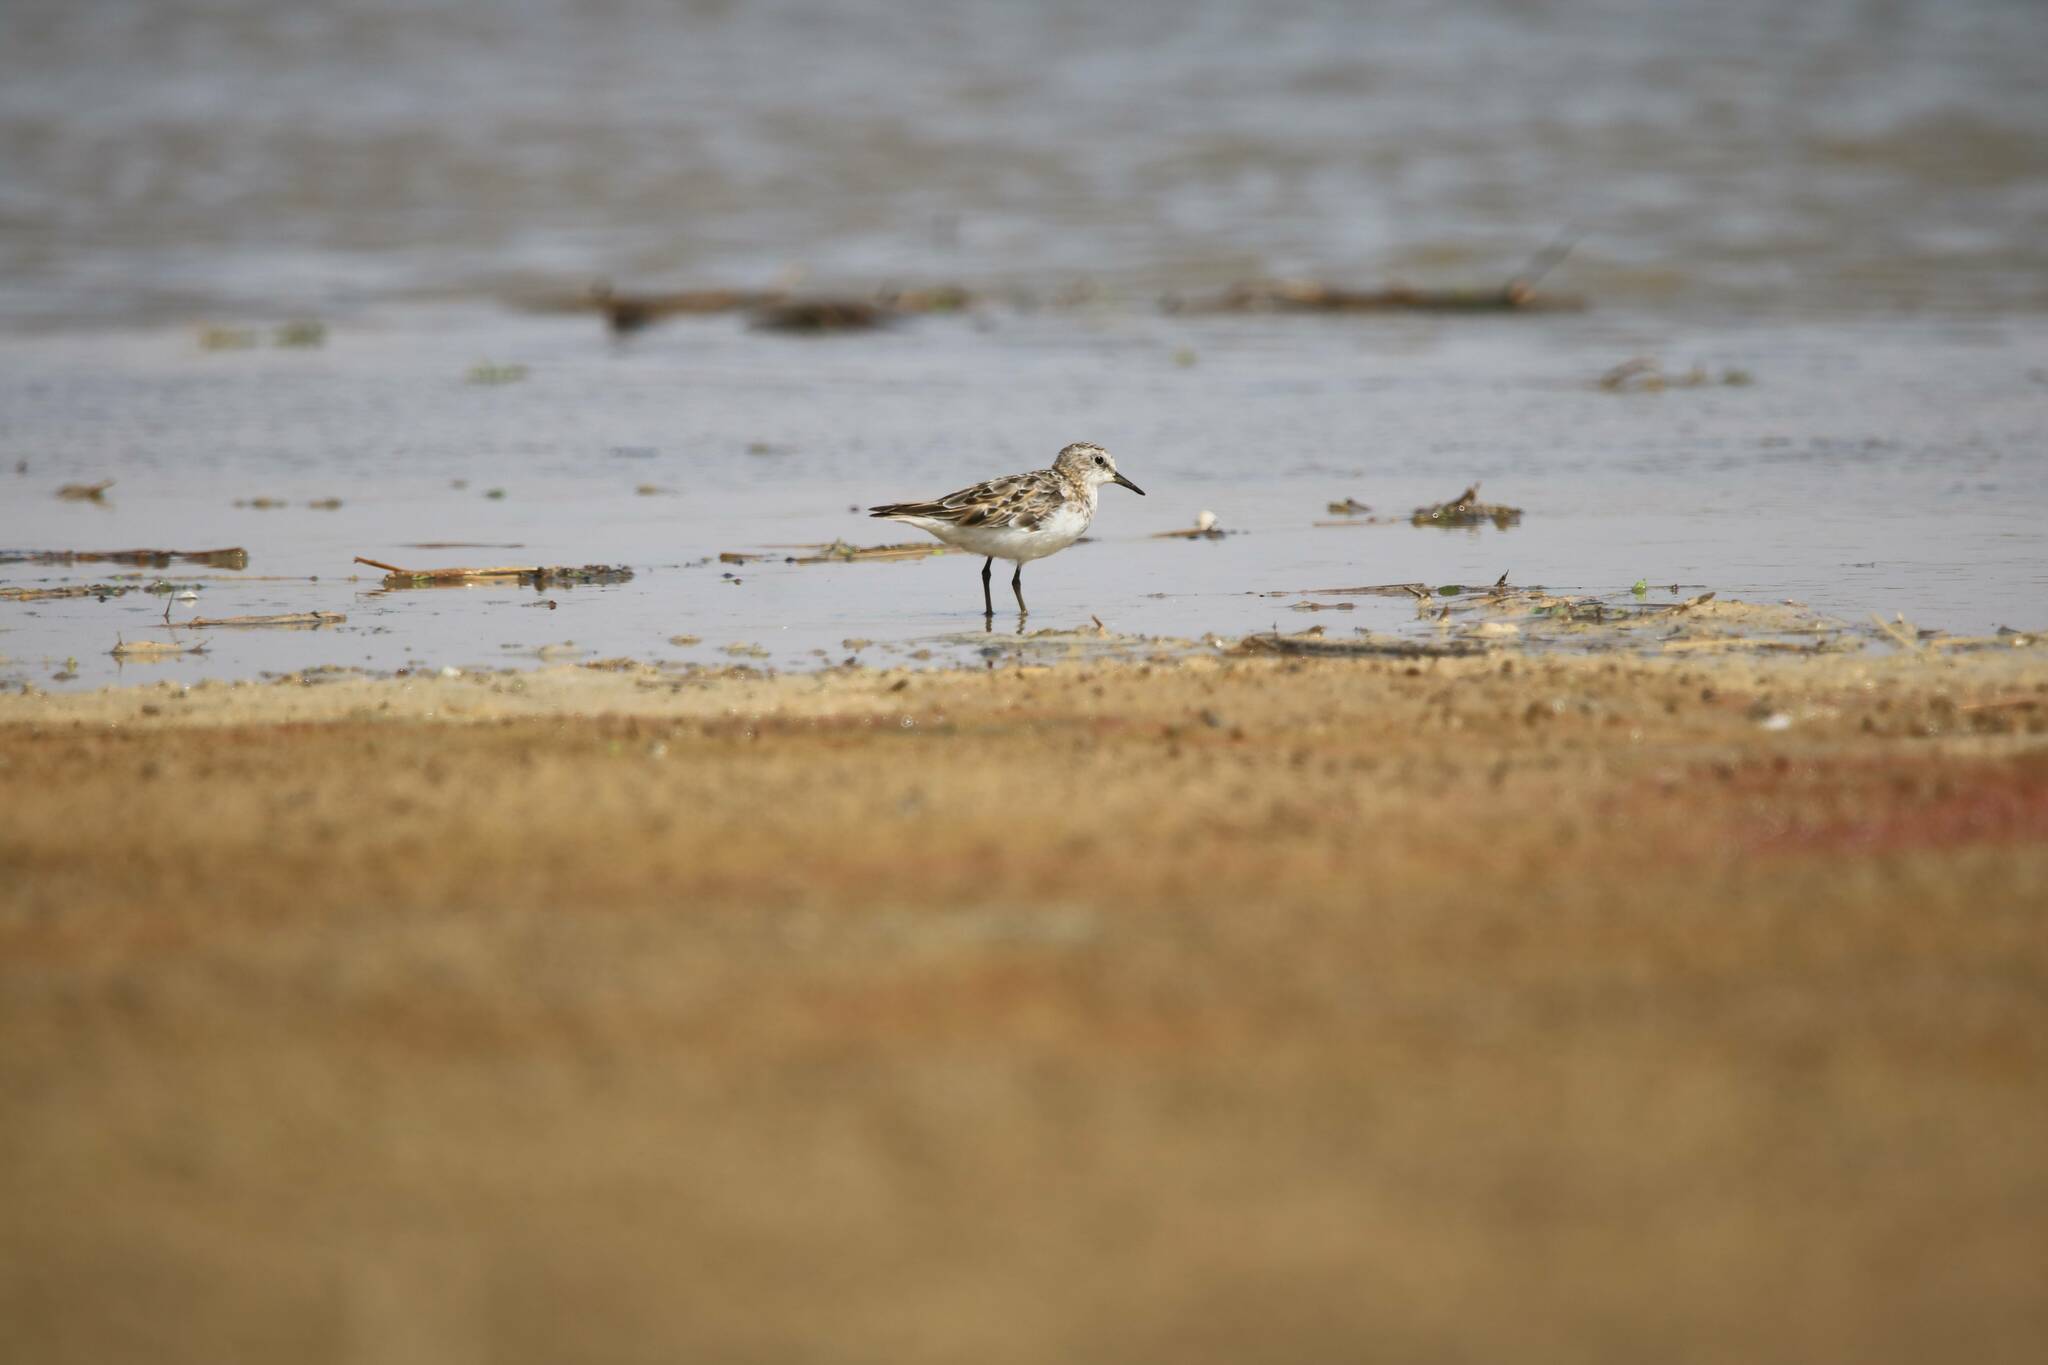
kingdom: Animalia
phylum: Chordata
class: Aves
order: Charadriiformes
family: Scolopacidae
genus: Calidris
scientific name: Calidris minuta
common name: Little stint
